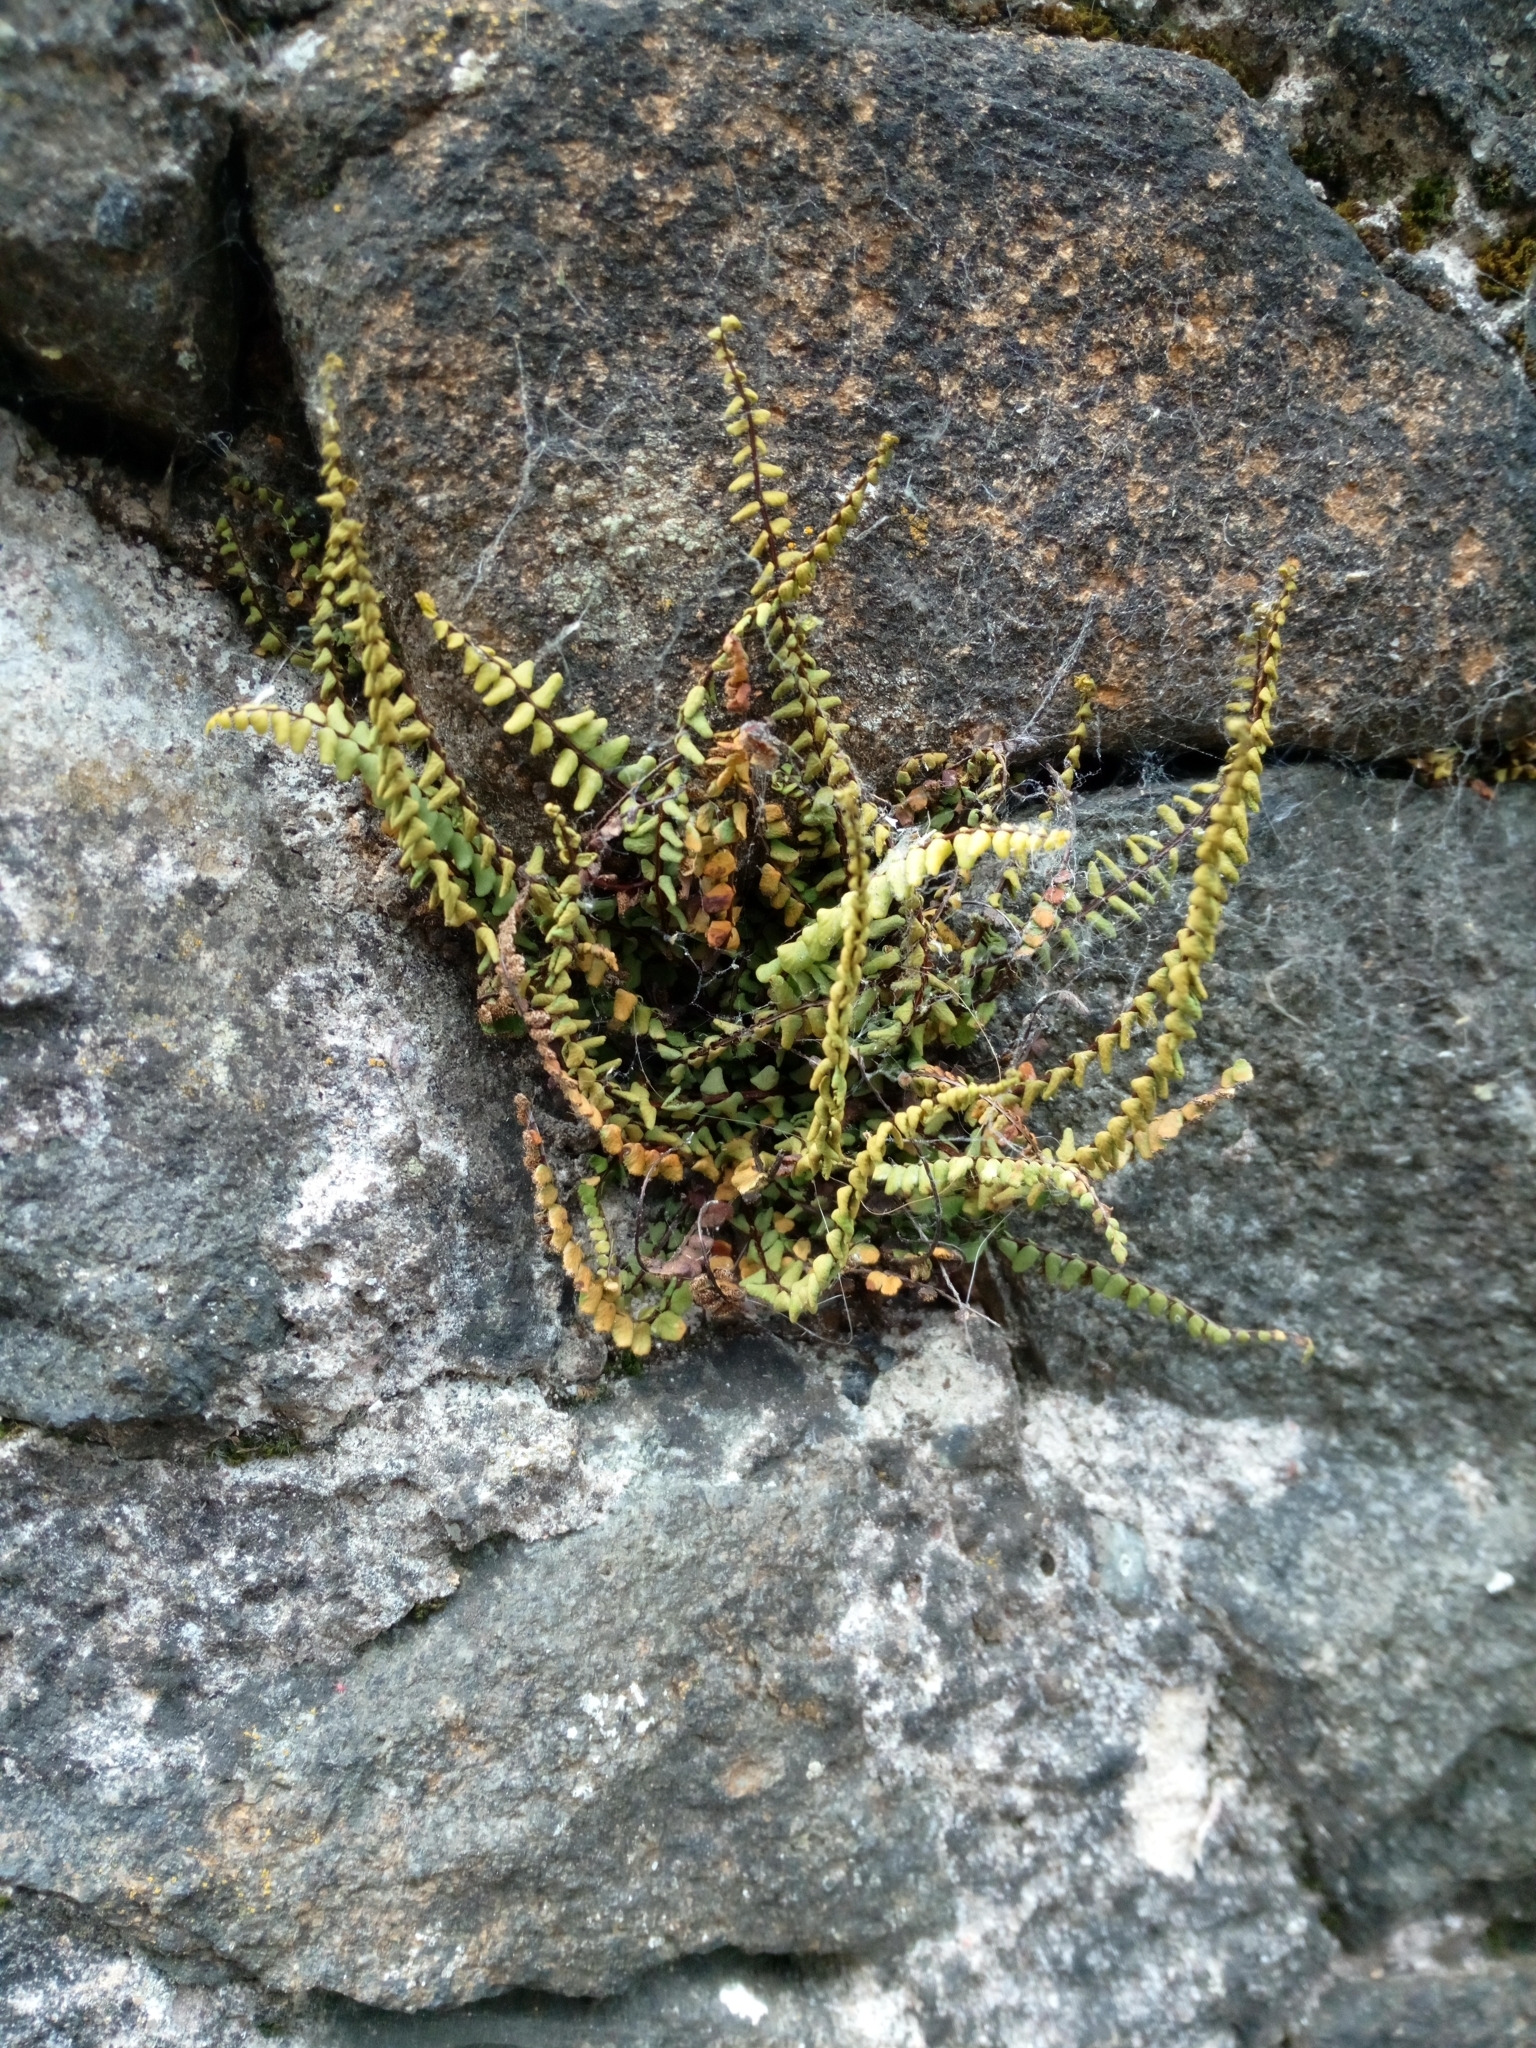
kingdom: Plantae
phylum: Tracheophyta
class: Polypodiopsida
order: Polypodiales
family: Aspleniaceae
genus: Asplenium
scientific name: Asplenium trichomanes
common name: Maidenhair spleenwort
